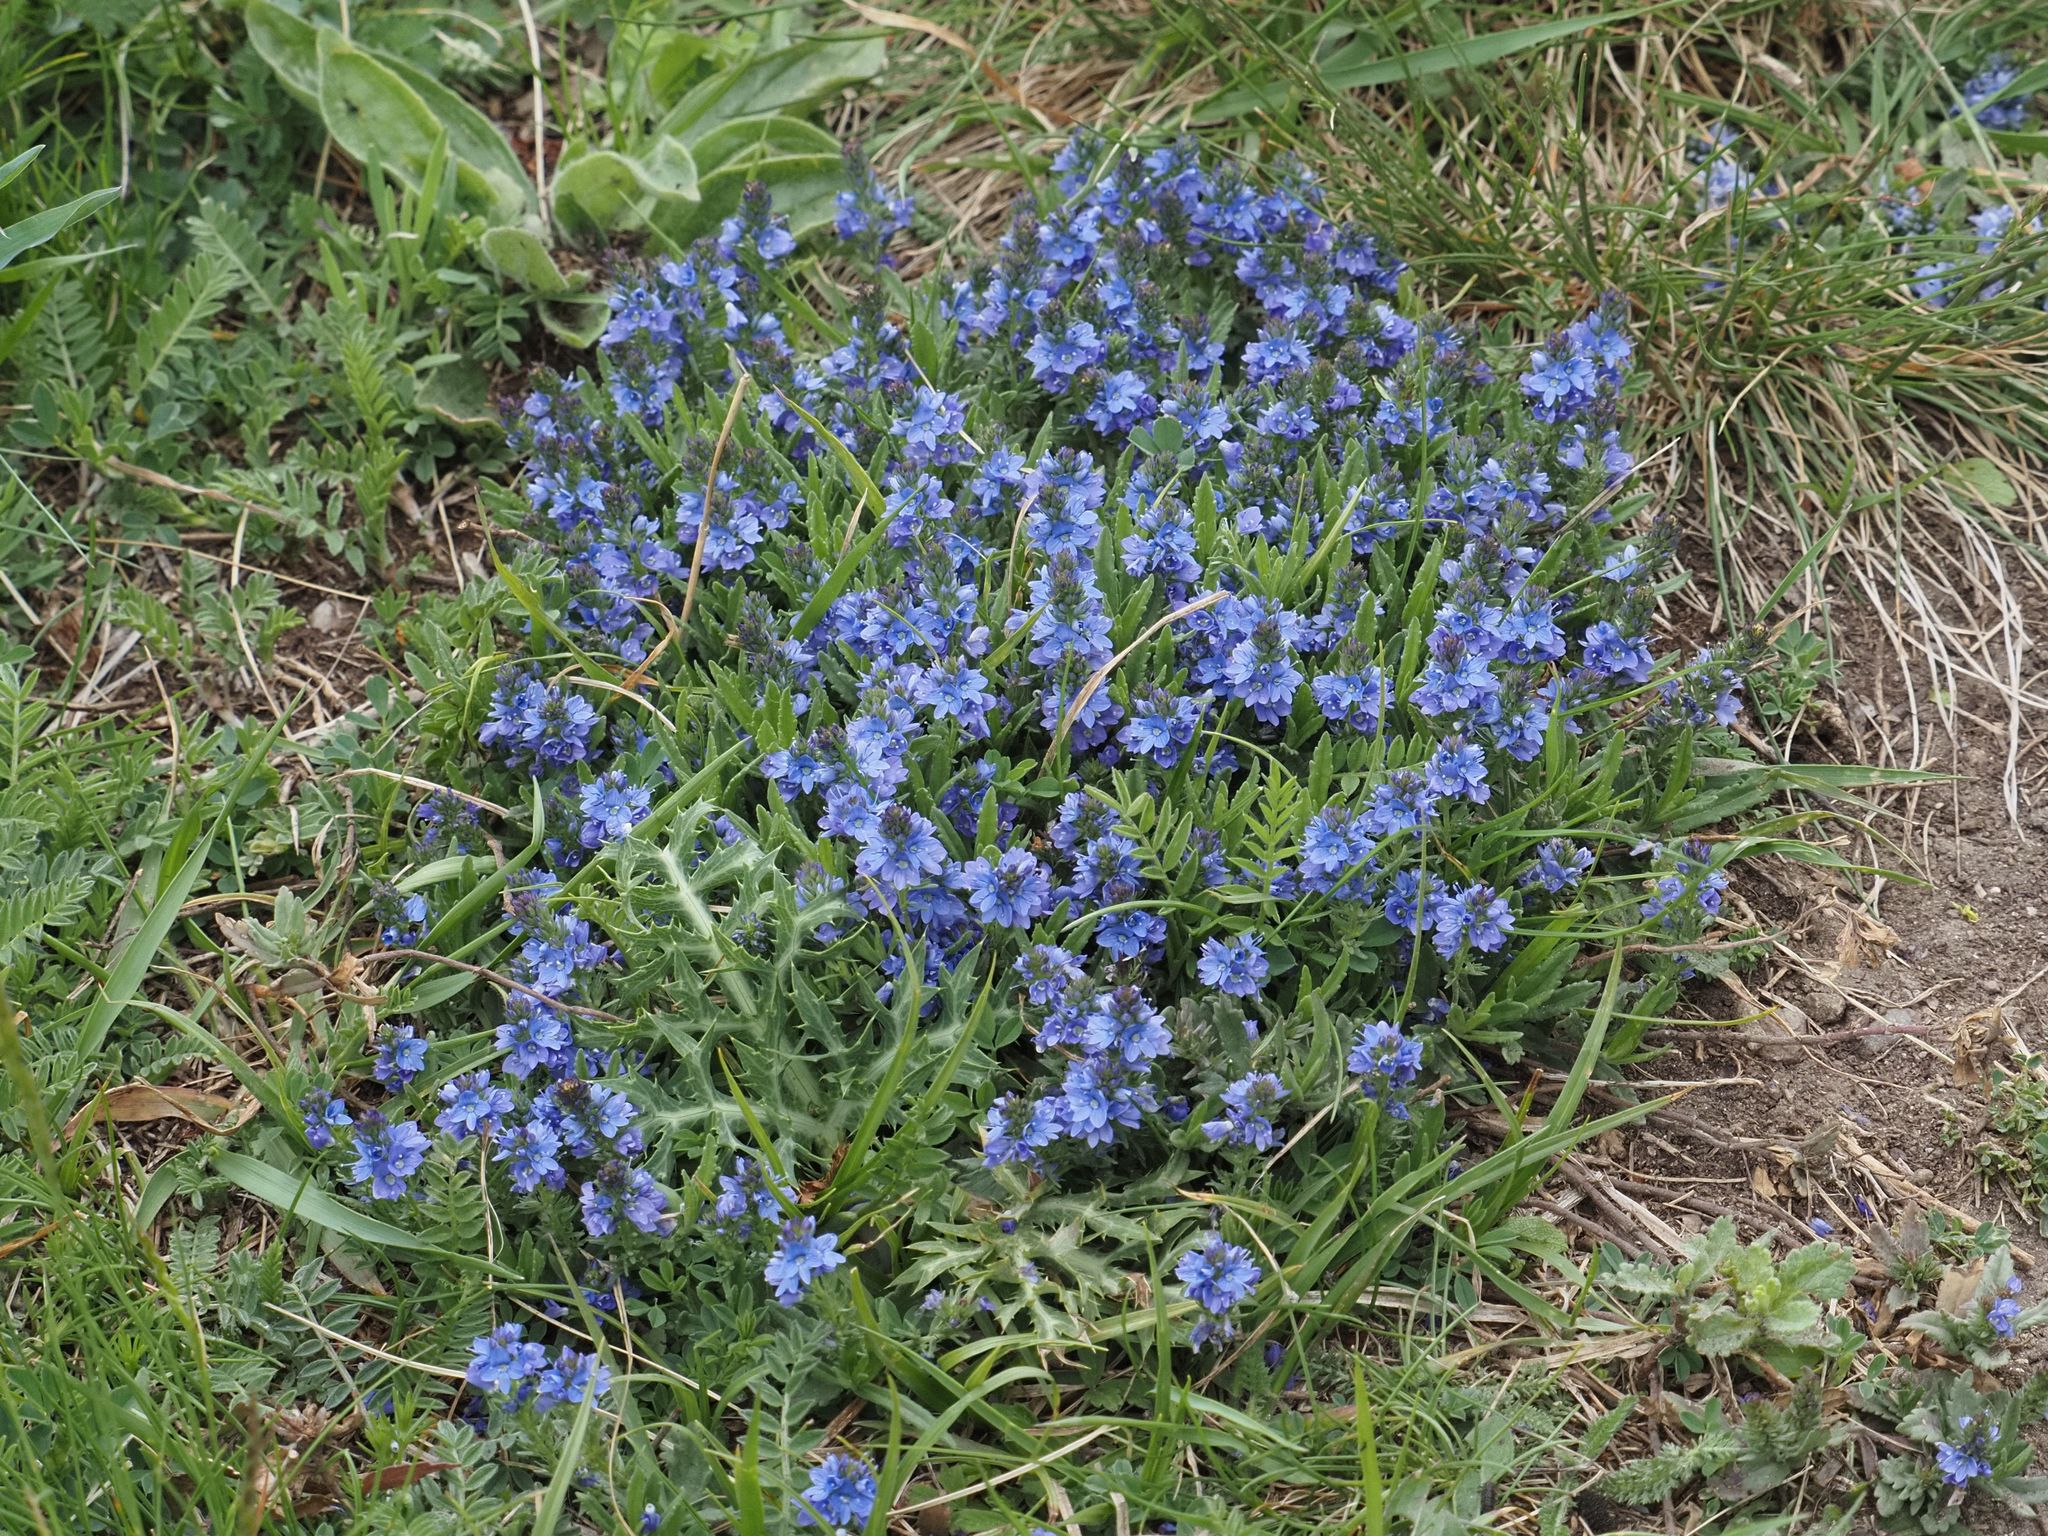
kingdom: Plantae
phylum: Tracheophyta
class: Magnoliopsida
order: Lamiales
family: Plantaginaceae
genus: Veronica
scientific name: Veronica prostrata
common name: Prostrate speedwell
